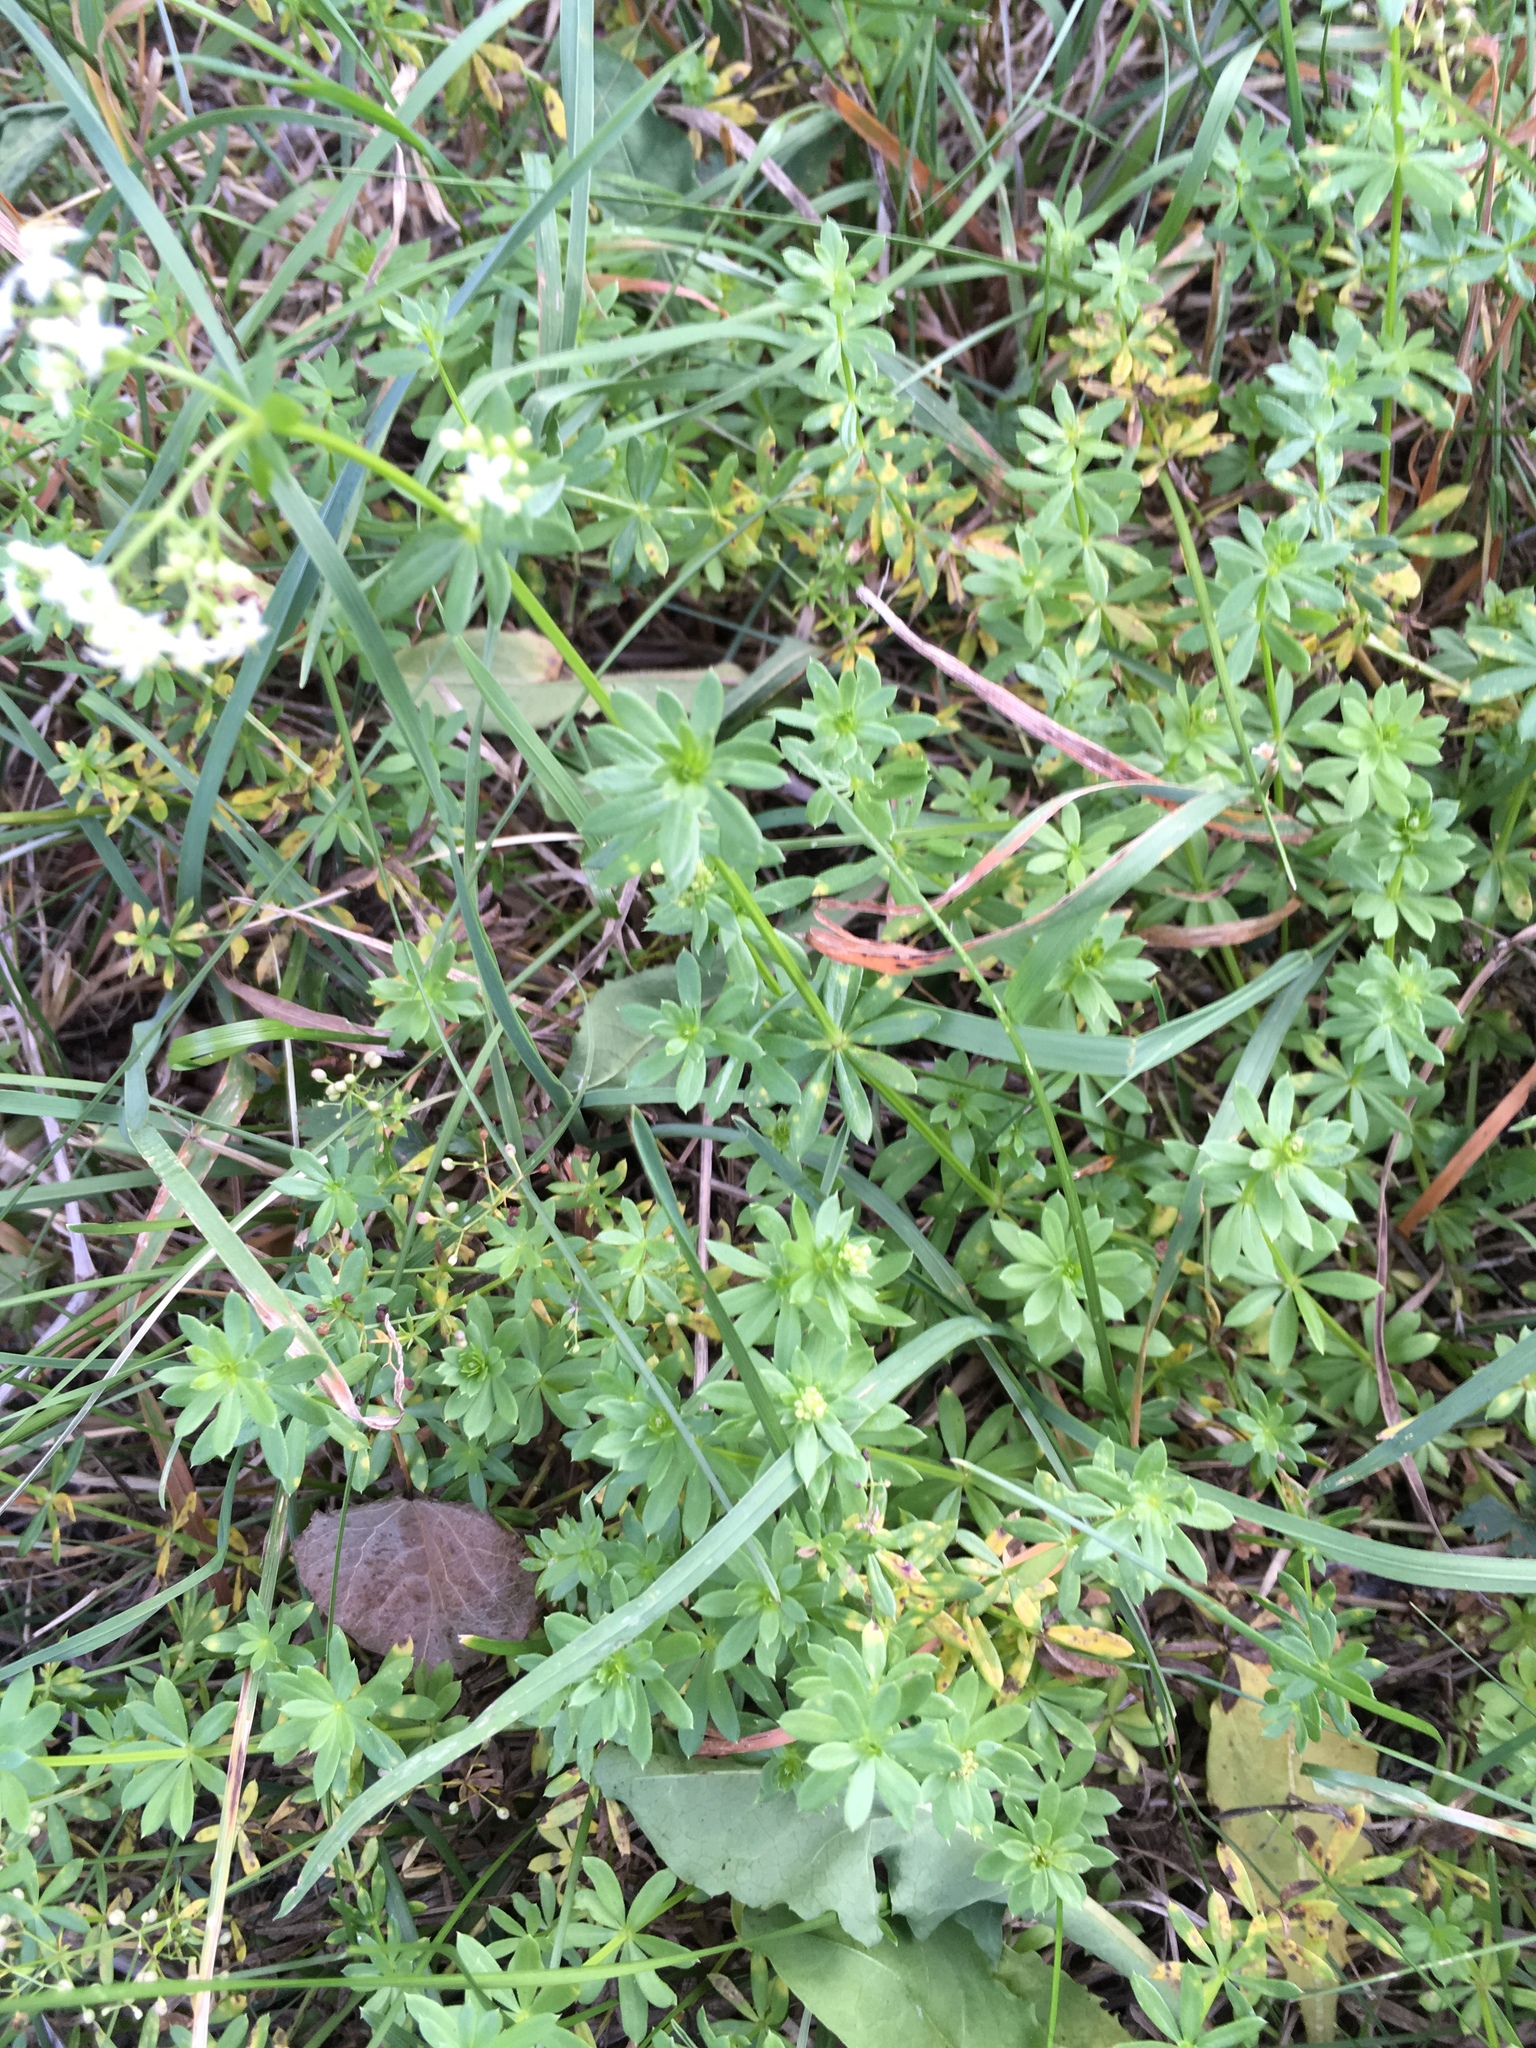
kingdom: Plantae
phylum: Tracheophyta
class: Magnoliopsida
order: Gentianales
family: Rubiaceae
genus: Galium
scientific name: Galium mollugo
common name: Hedge bedstraw
